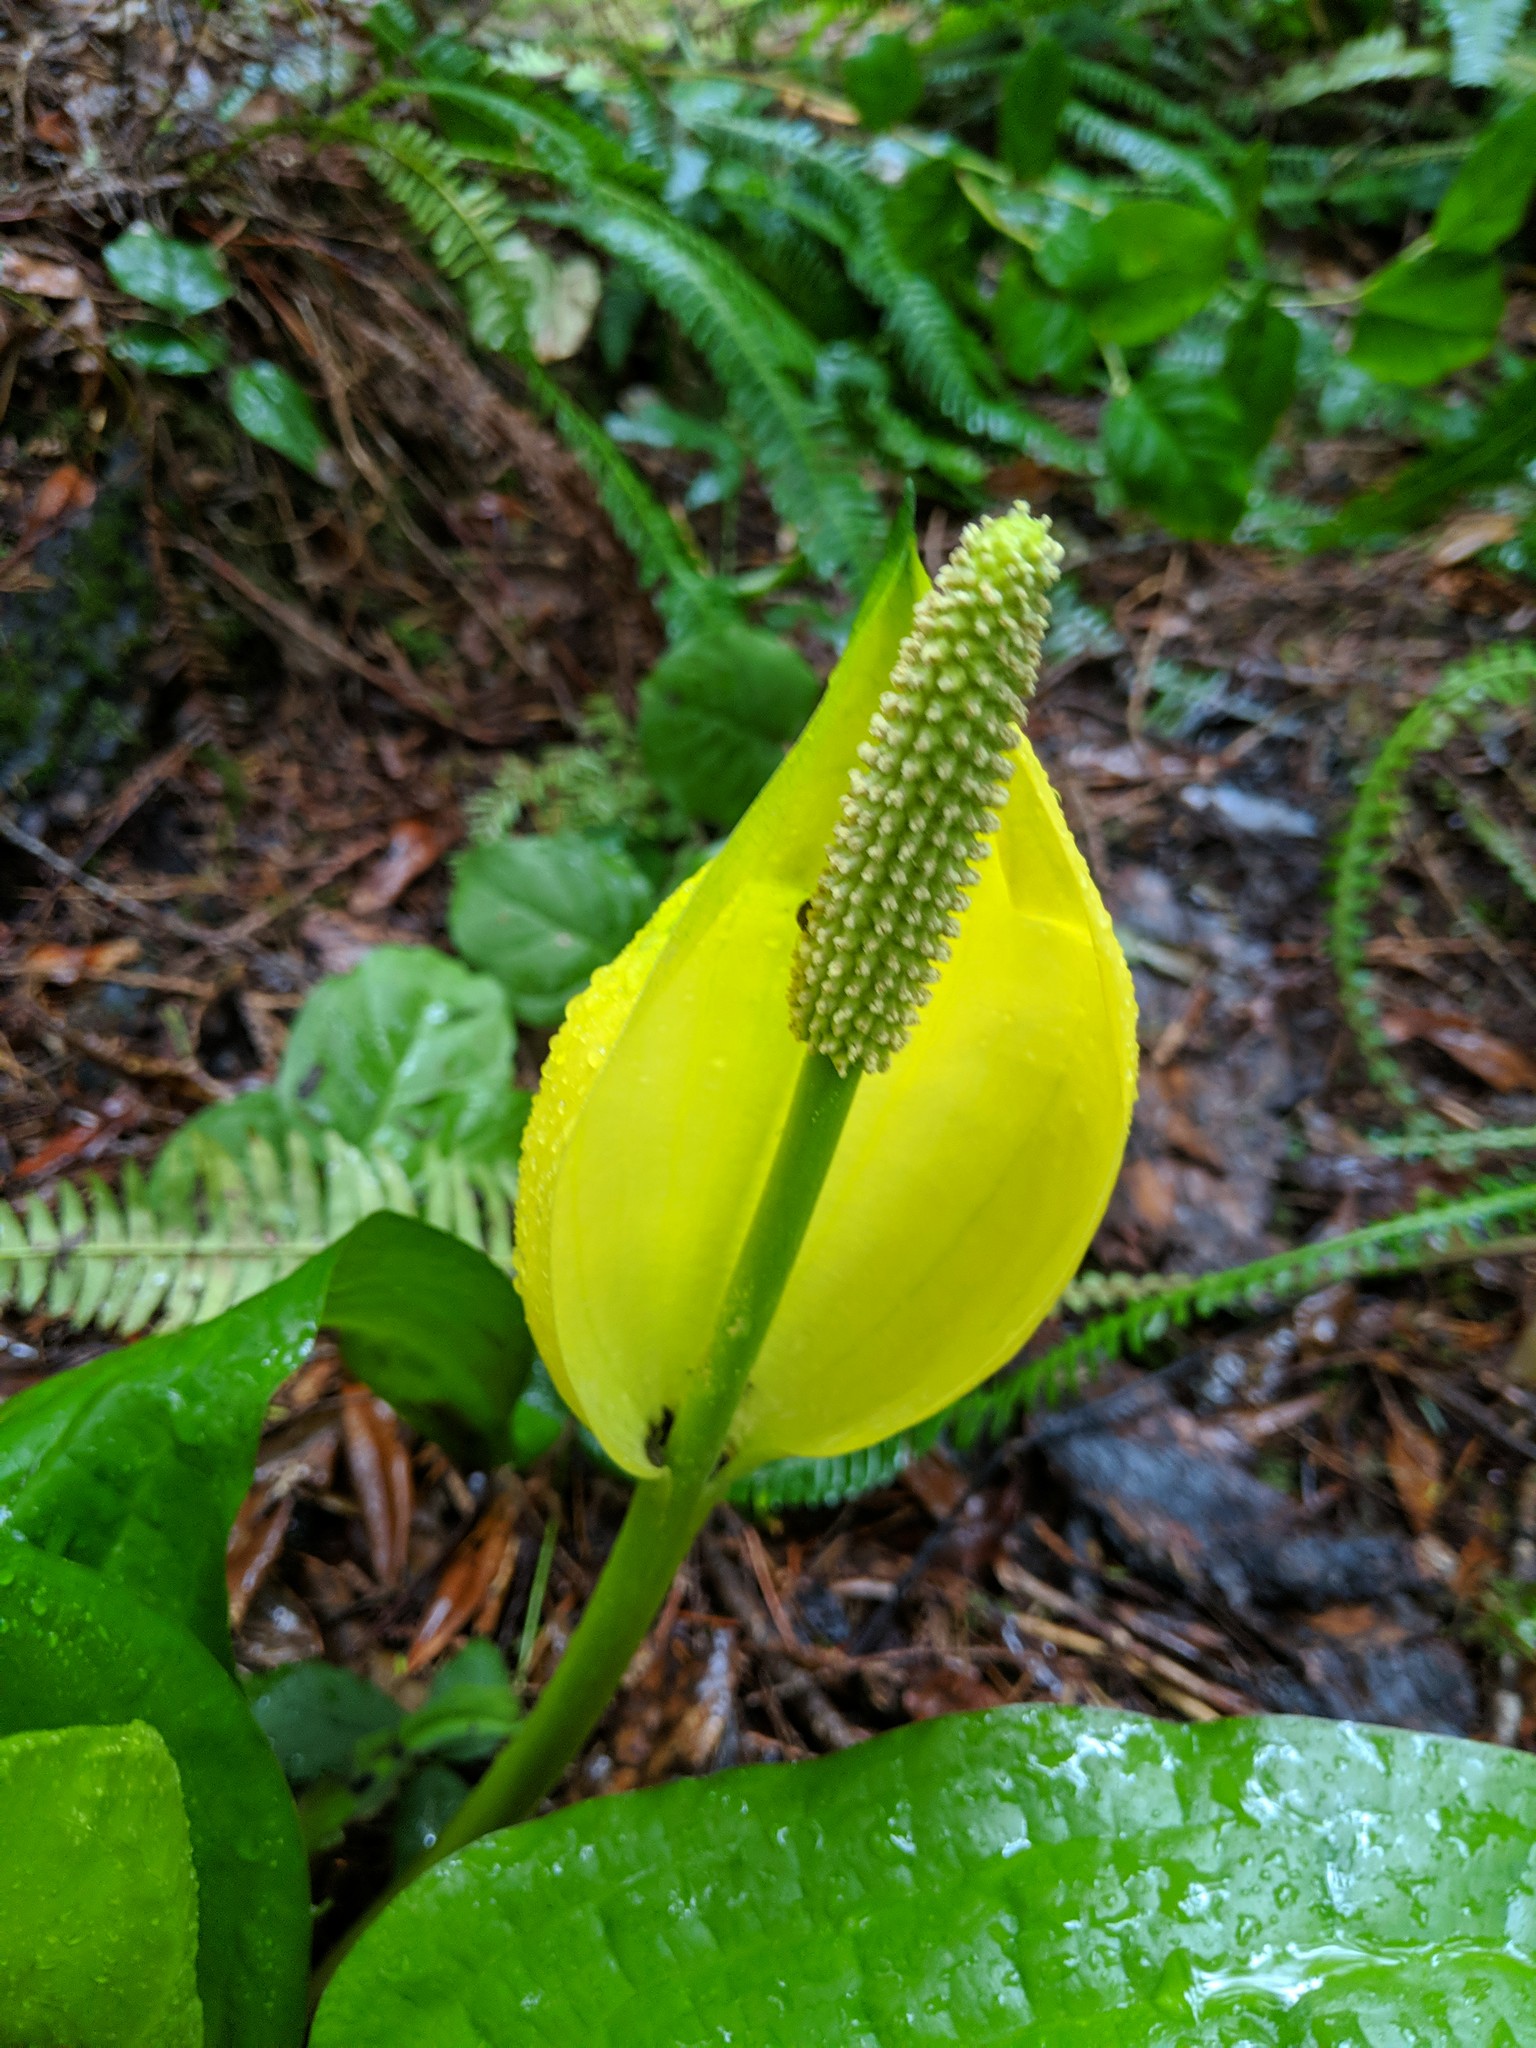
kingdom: Plantae
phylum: Tracheophyta
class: Liliopsida
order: Alismatales
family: Araceae
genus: Lysichiton
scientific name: Lysichiton americanus
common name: American skunk cabbage
